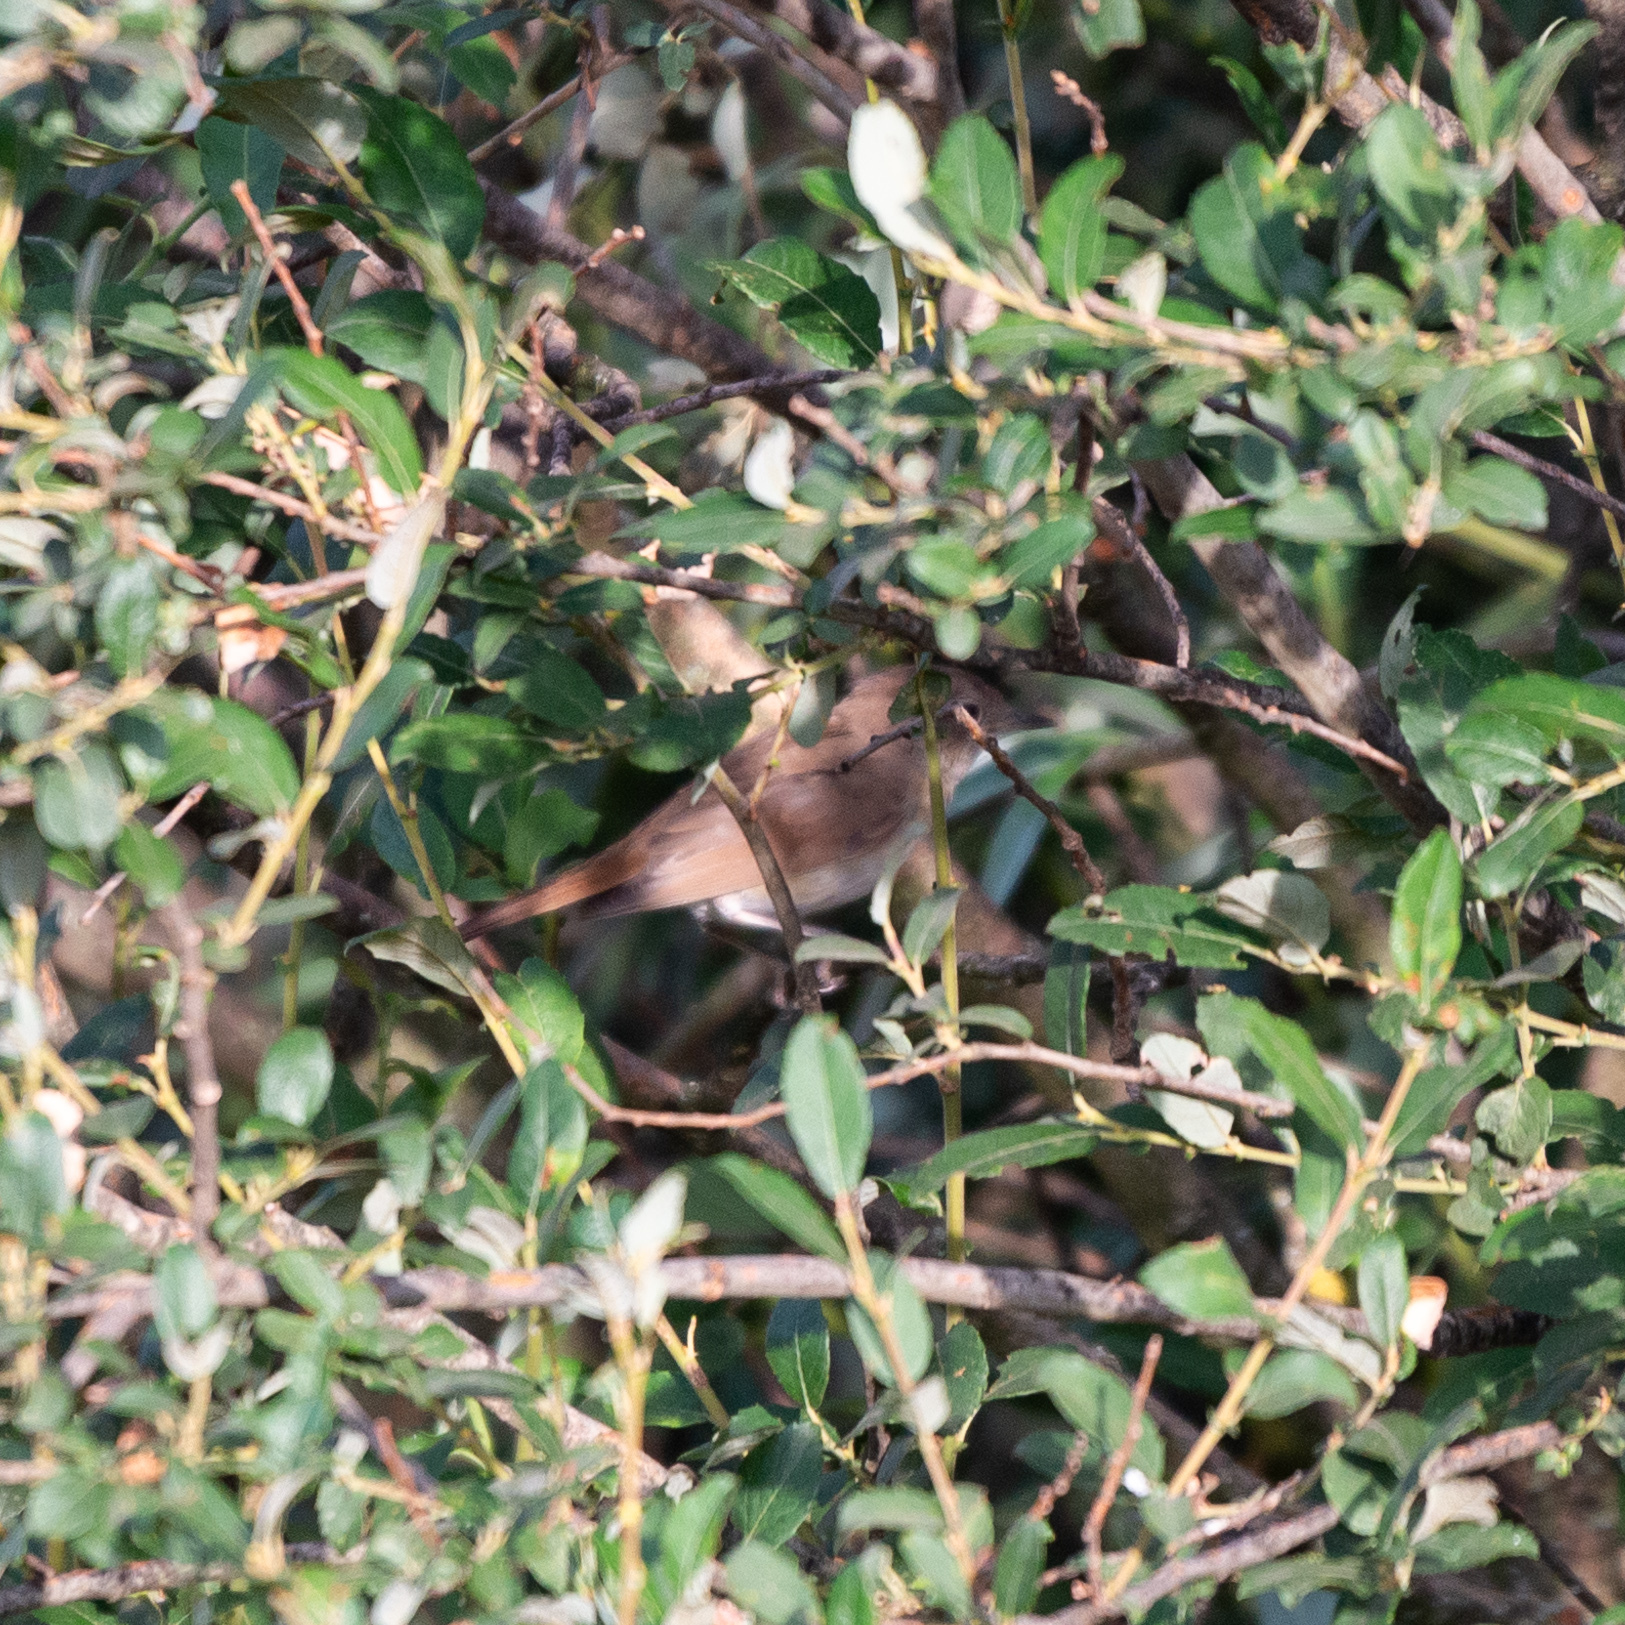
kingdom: Animalia
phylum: Chordata
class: Aves
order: Passeriformes
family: Muscicapidae
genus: Luscinia
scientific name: Luscinia megarhynchos
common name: Common nightingale
